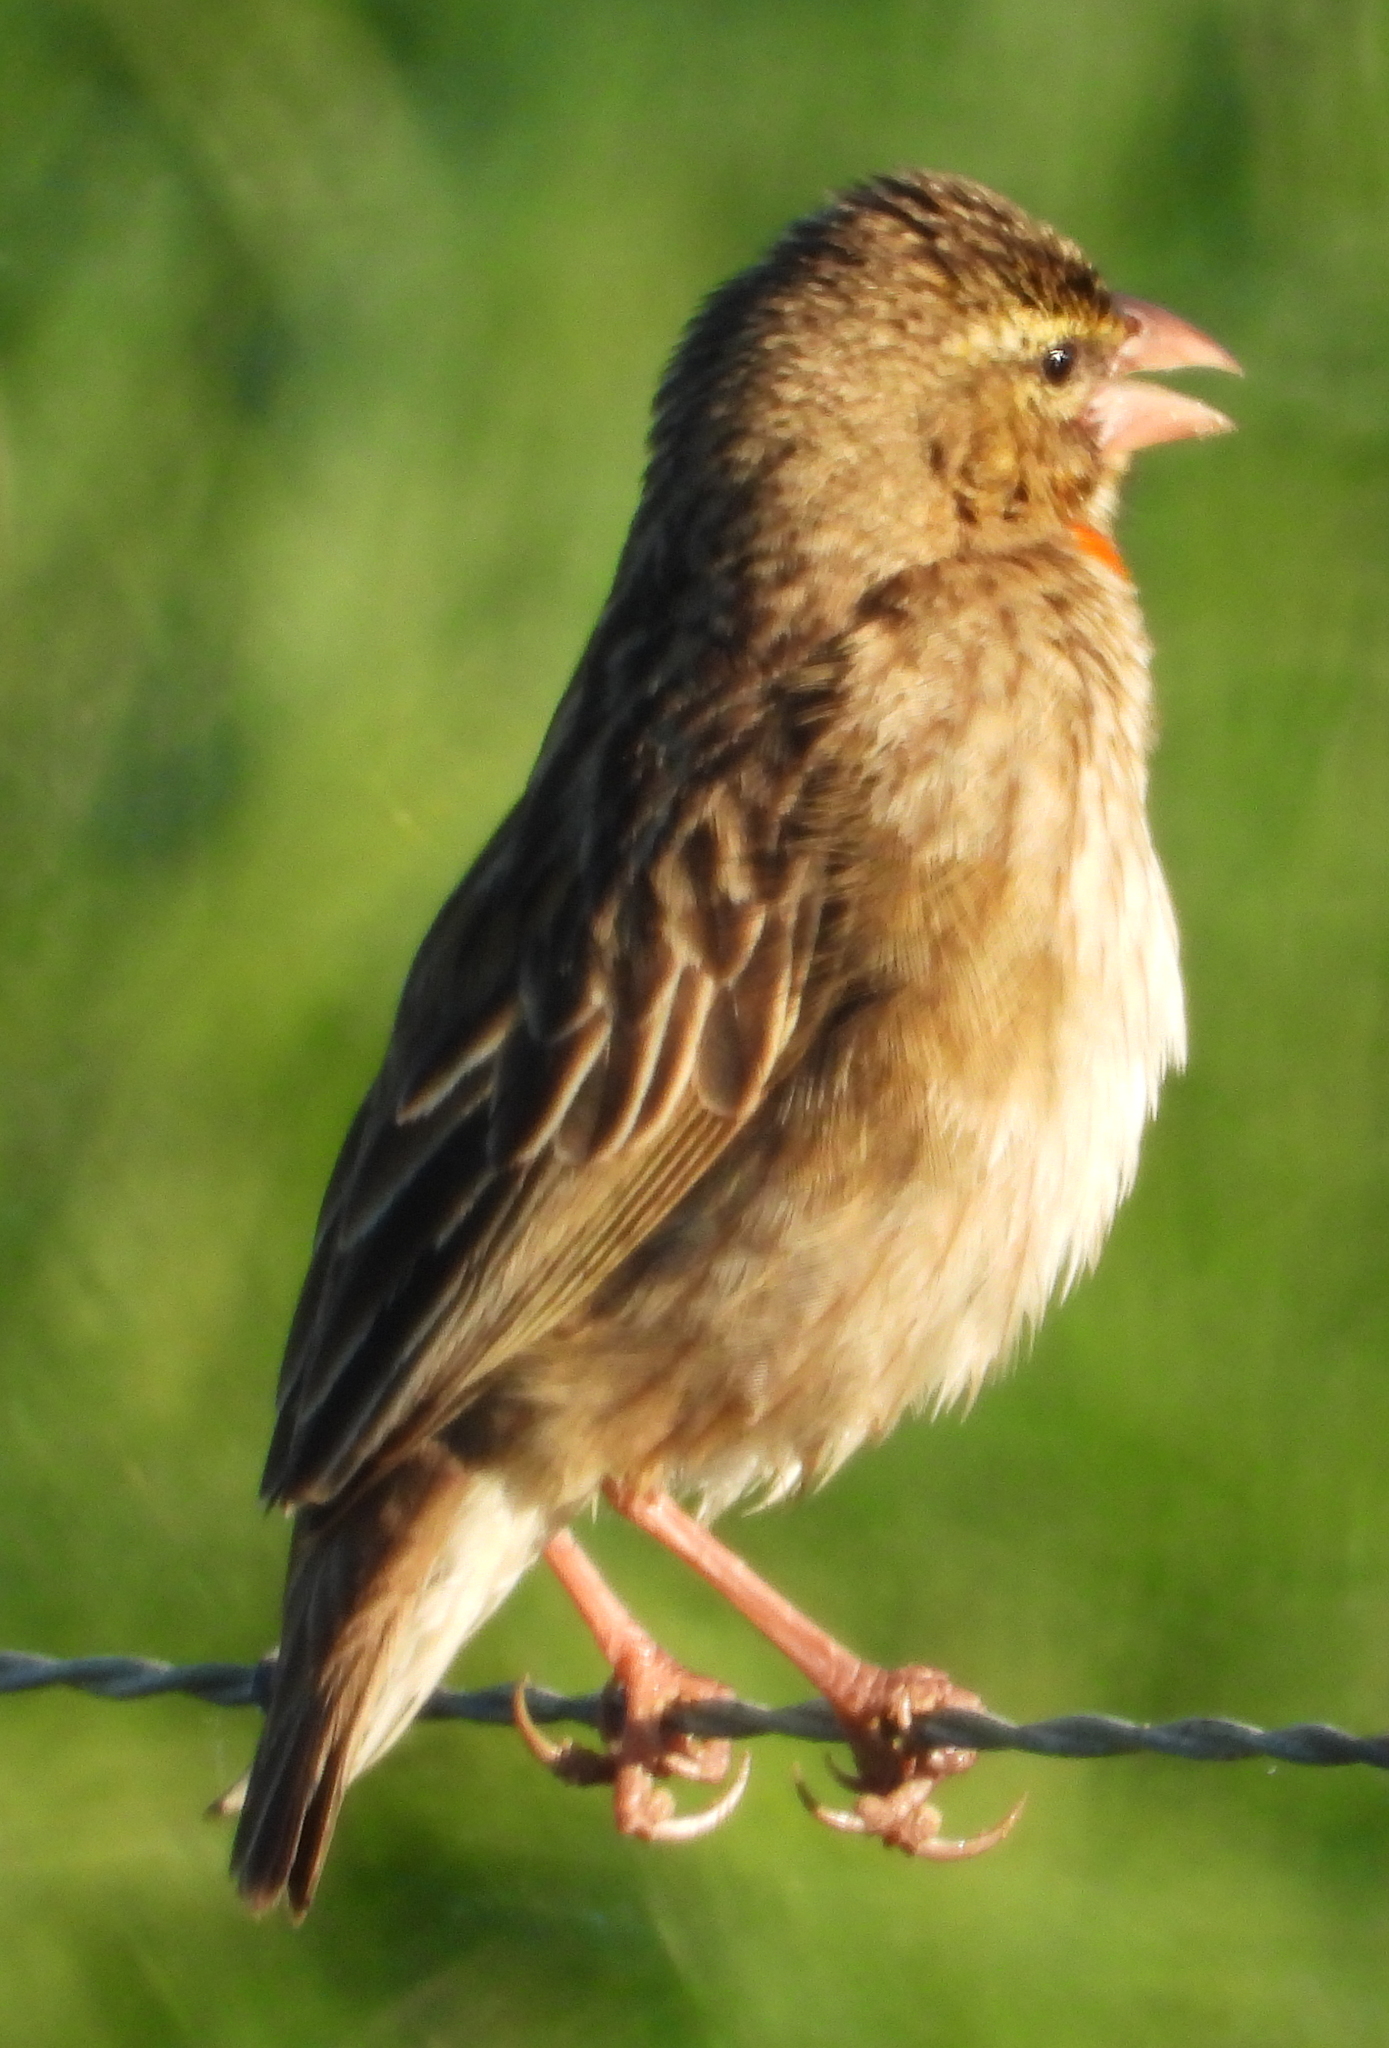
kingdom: Animalia
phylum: Chordata
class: Aves
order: Passeriformes
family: Ploceidae
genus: Euplectes
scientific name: Euplectes orix
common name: Southern red bishop
